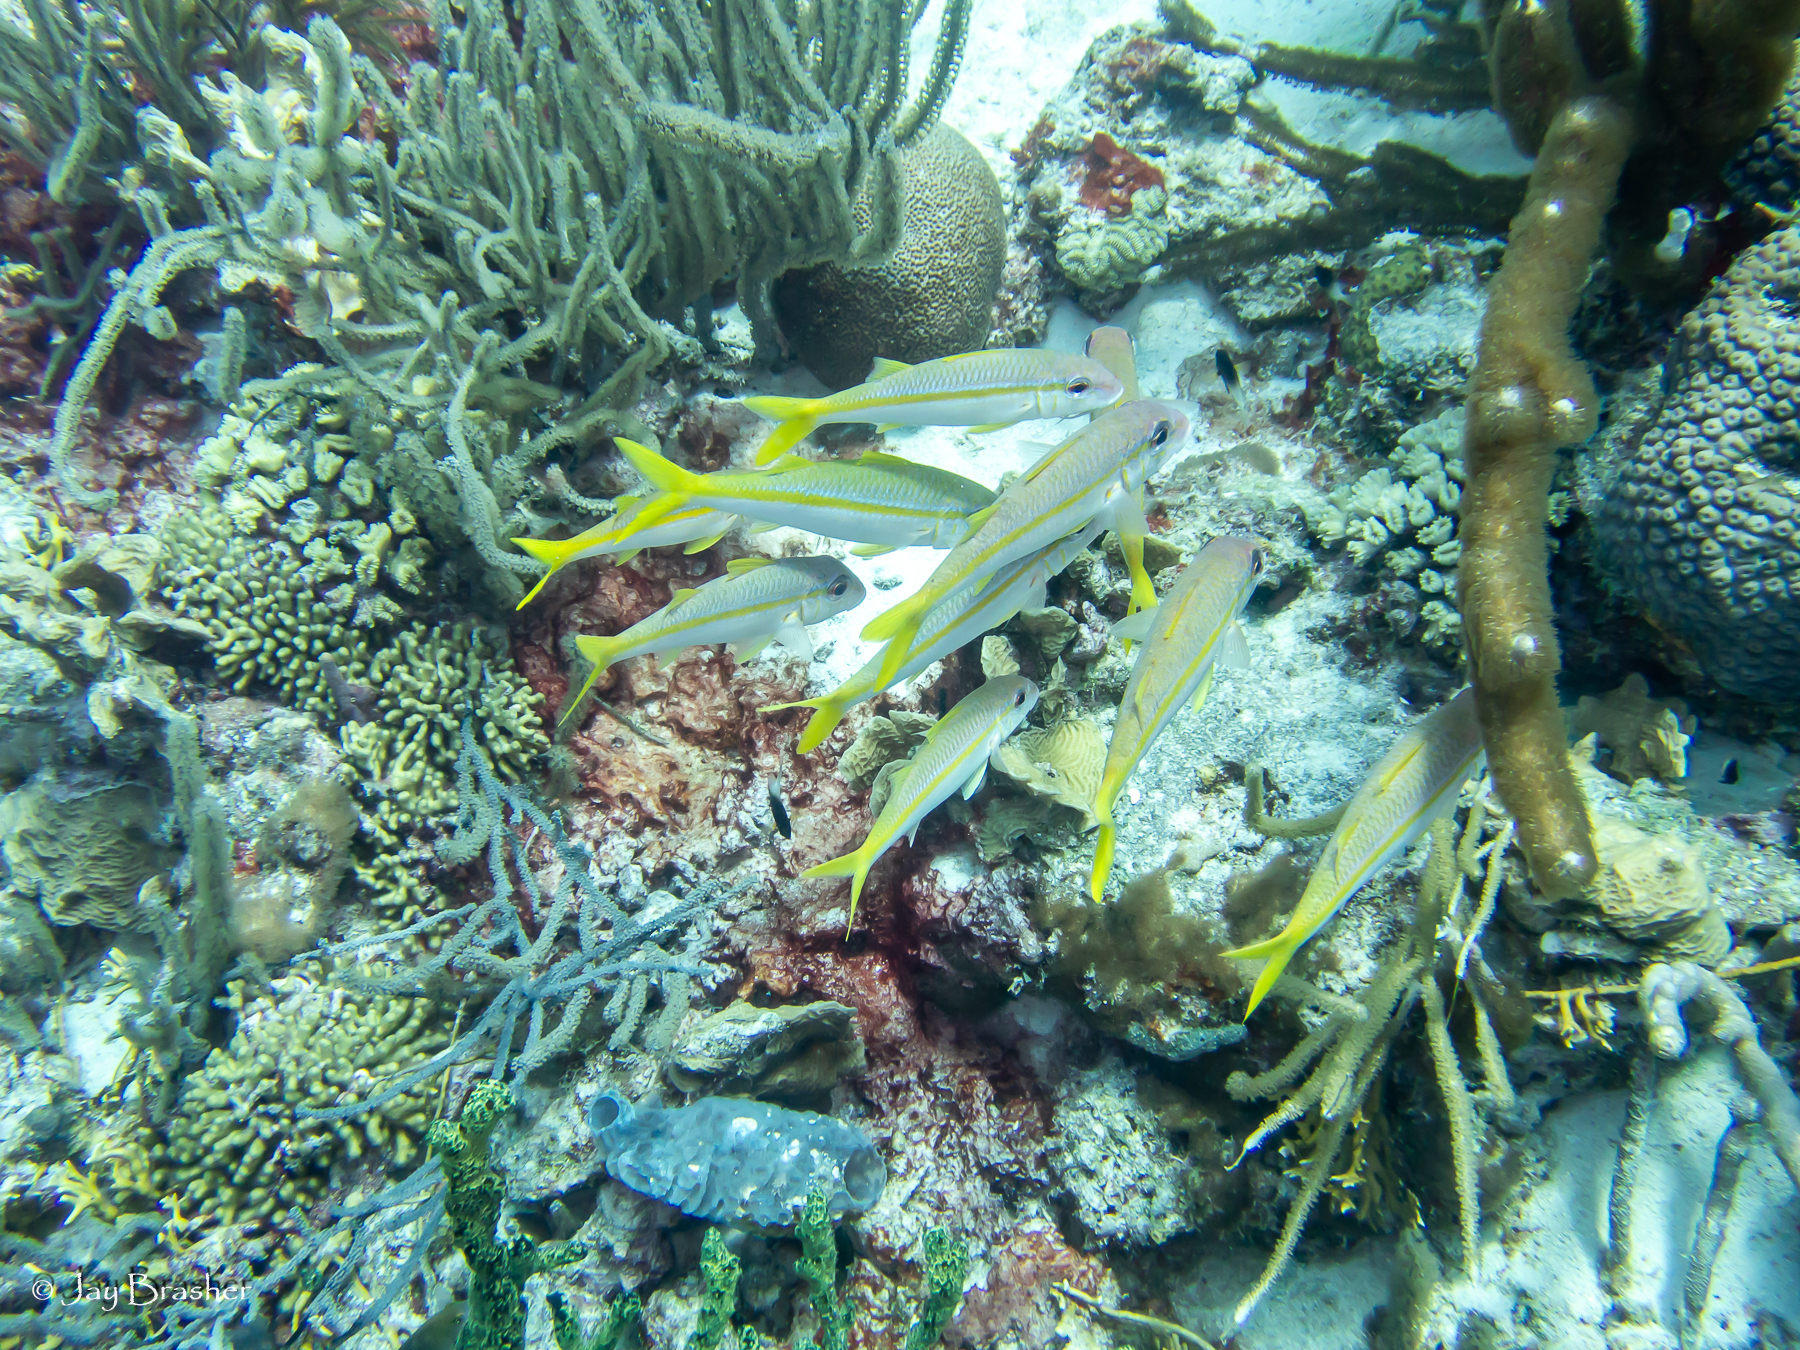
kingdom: Animalia
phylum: Chordata
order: Perciformes
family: Mullidae
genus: Mulloidichthys
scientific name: Mulloidichthys martinicus
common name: Yellow goatfish
